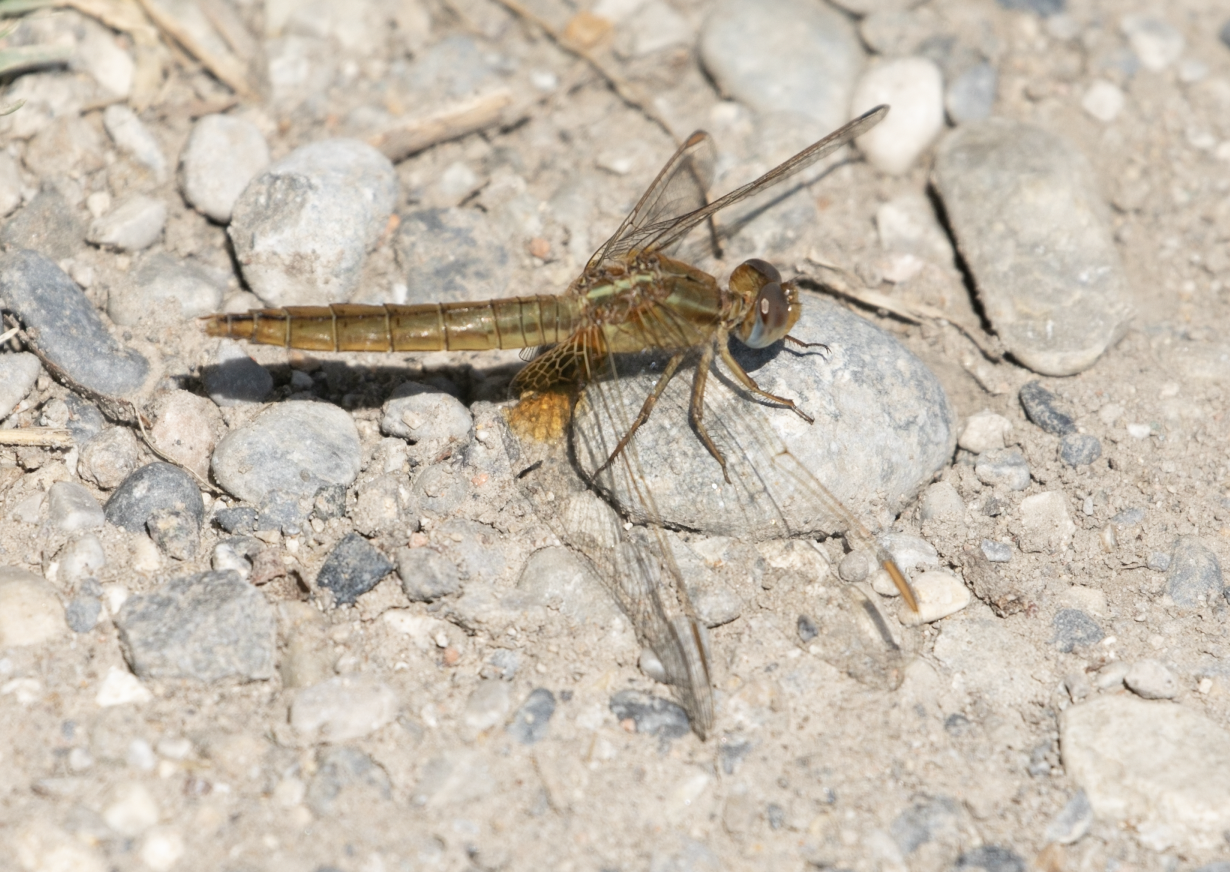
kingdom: Animalia
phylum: Arthropoda
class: Insecta
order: Odonata
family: Libellulidae
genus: Crocothemis
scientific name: Crocothemis erythraea
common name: Scarlet dragonfly
